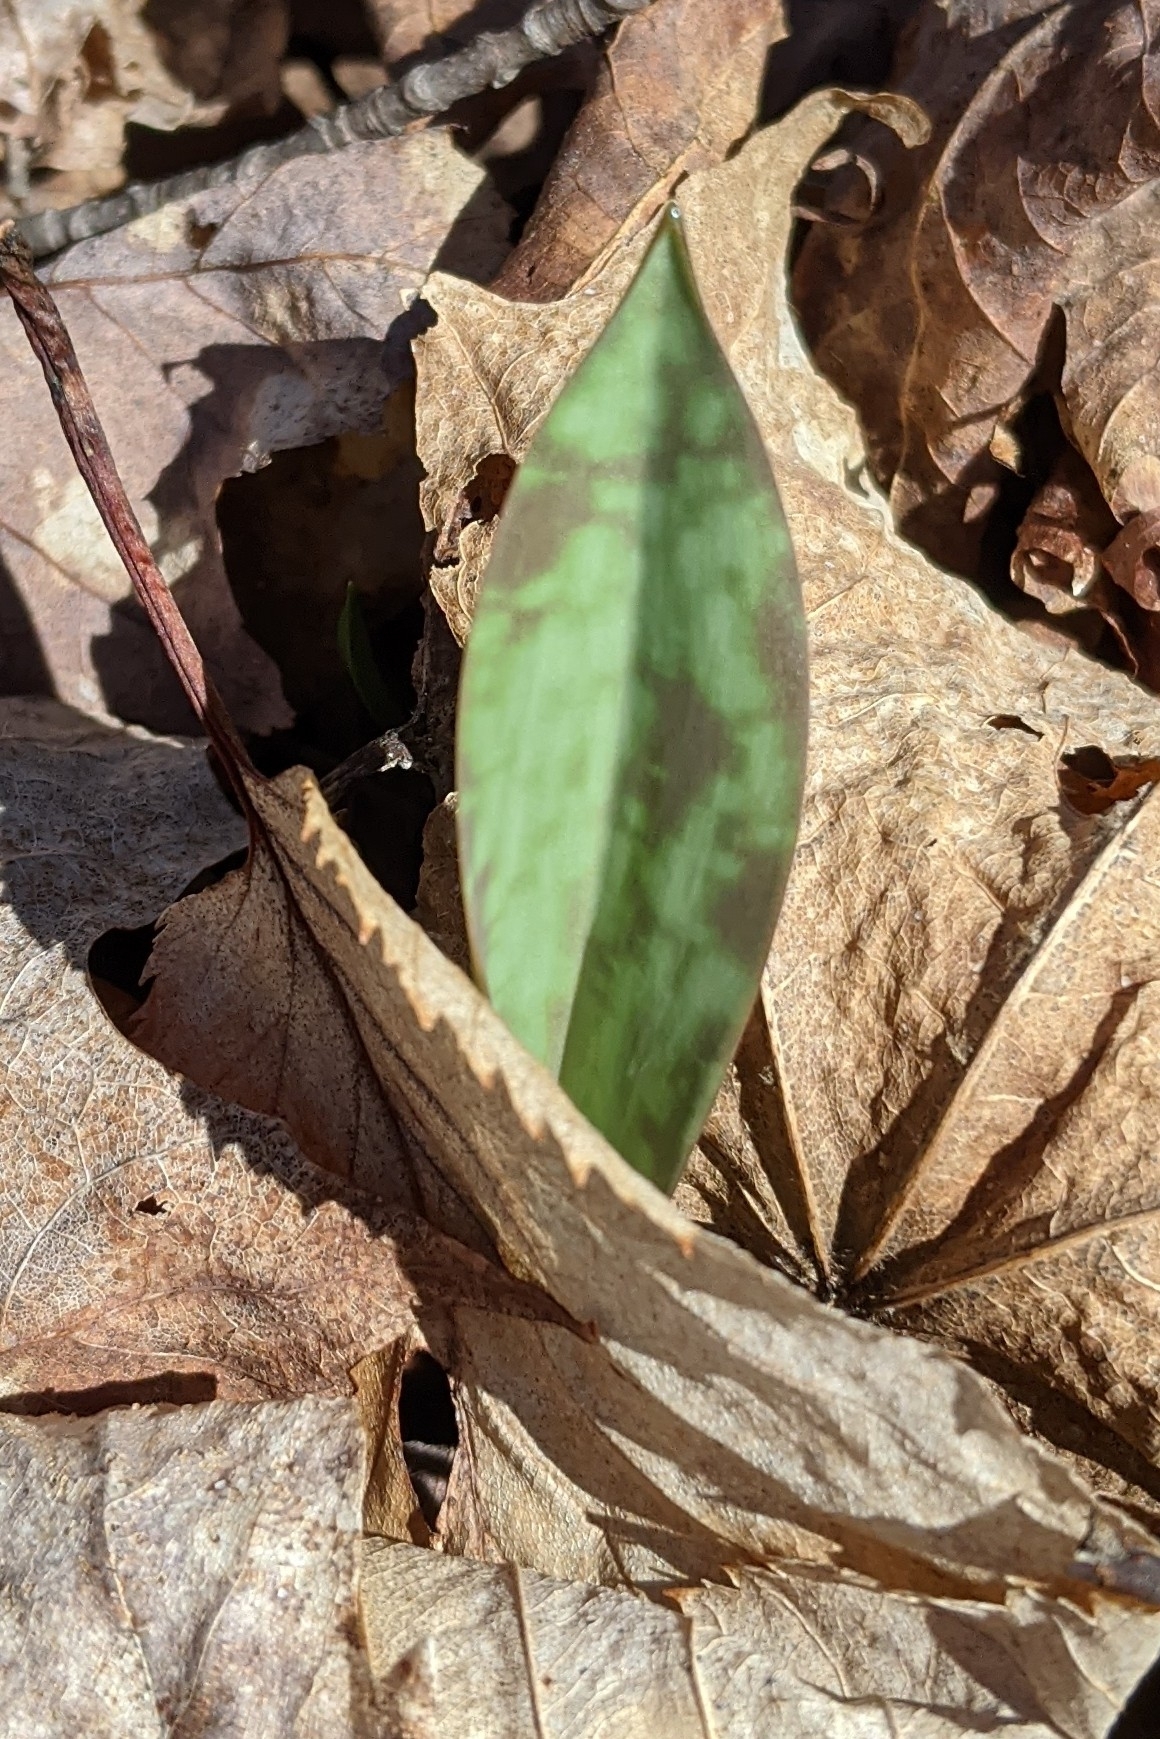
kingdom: Plantae
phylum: Tracheophyta
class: Liliopsida
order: Liliales
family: Liliaceae
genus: Erythronium
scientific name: Erythronium americanum
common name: Yellow adder's-tongue
